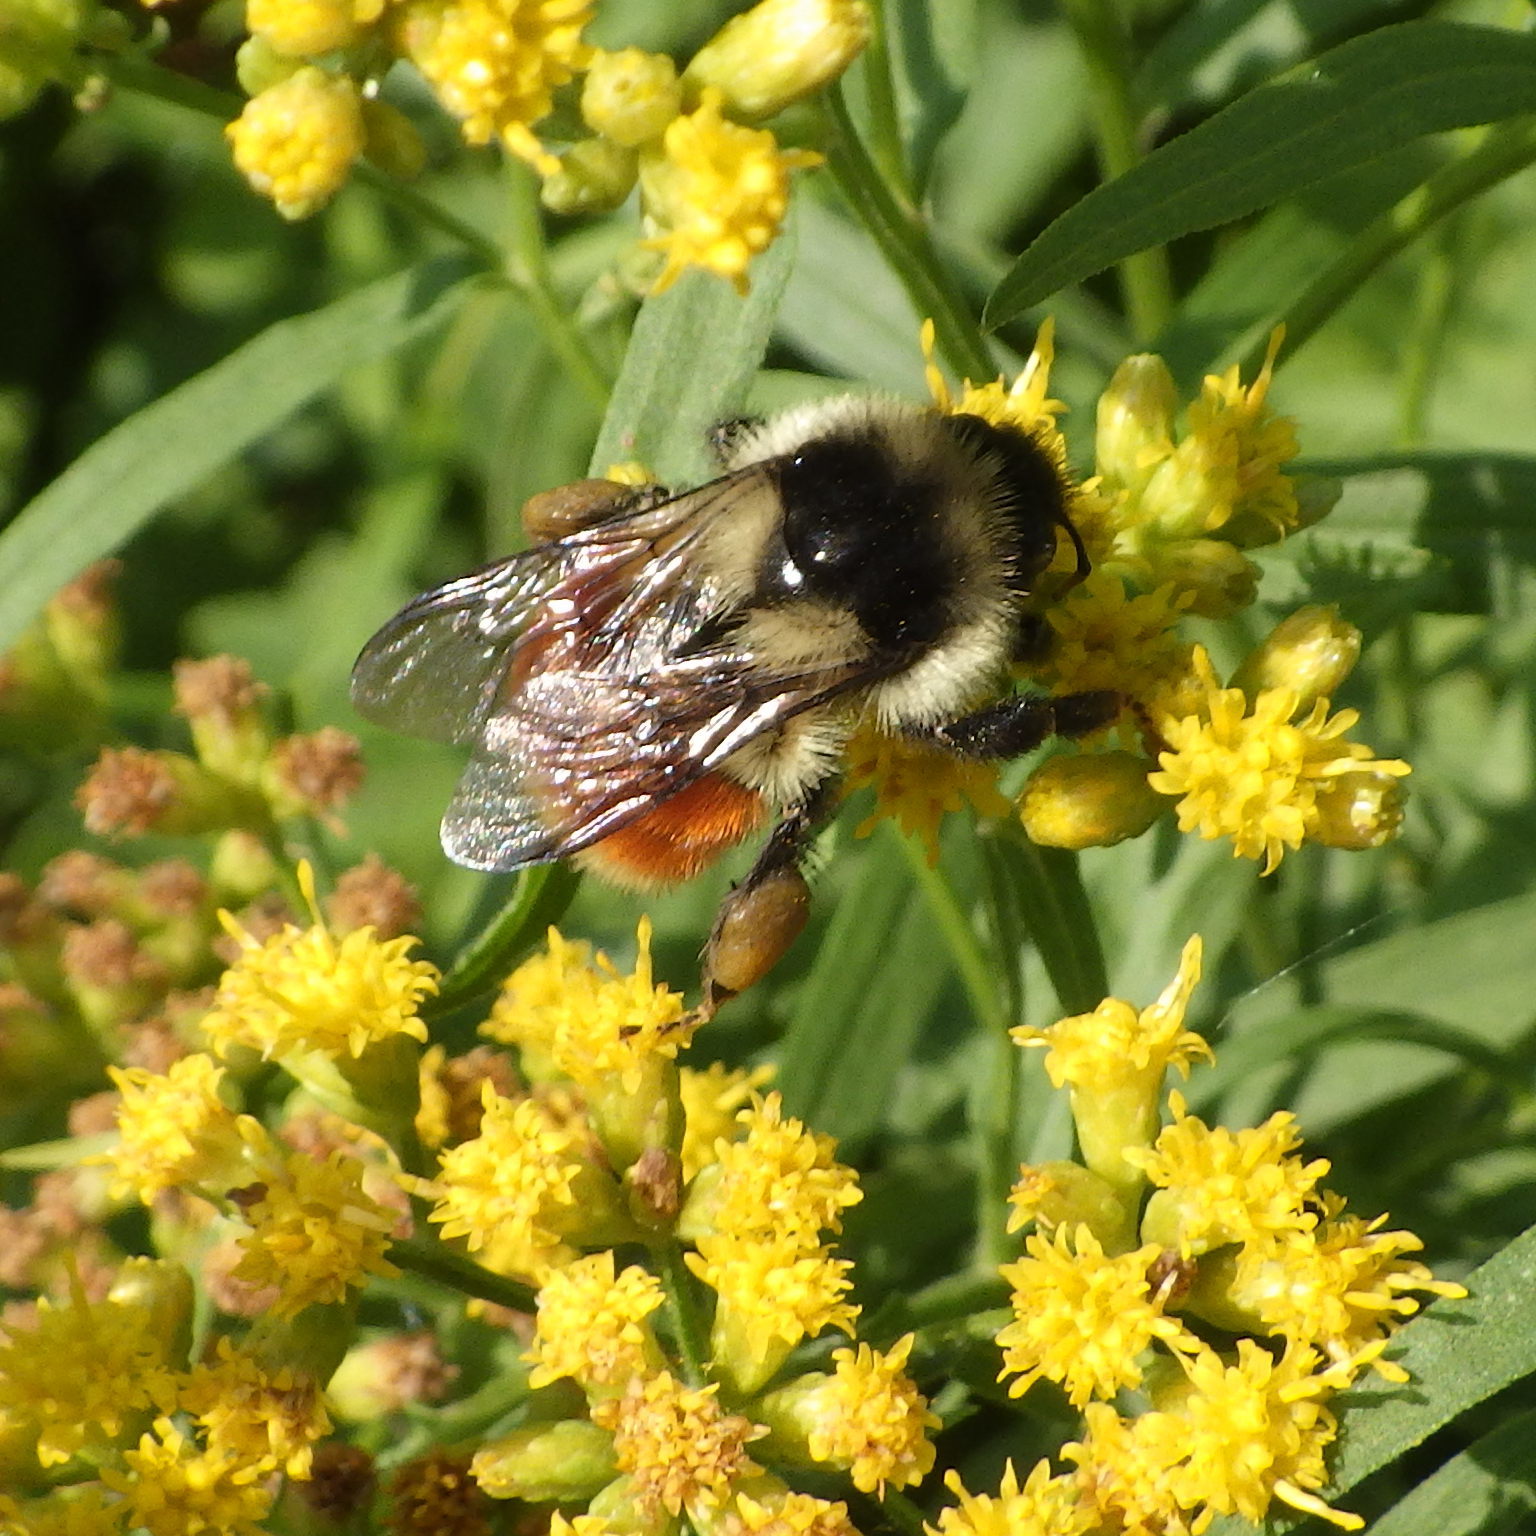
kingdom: Animalia
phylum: Arthropoda
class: Insecta
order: Hymenoptera
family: Apidae
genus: Bombus
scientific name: Bombus ternarius
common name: Tri-colored bumble bee
